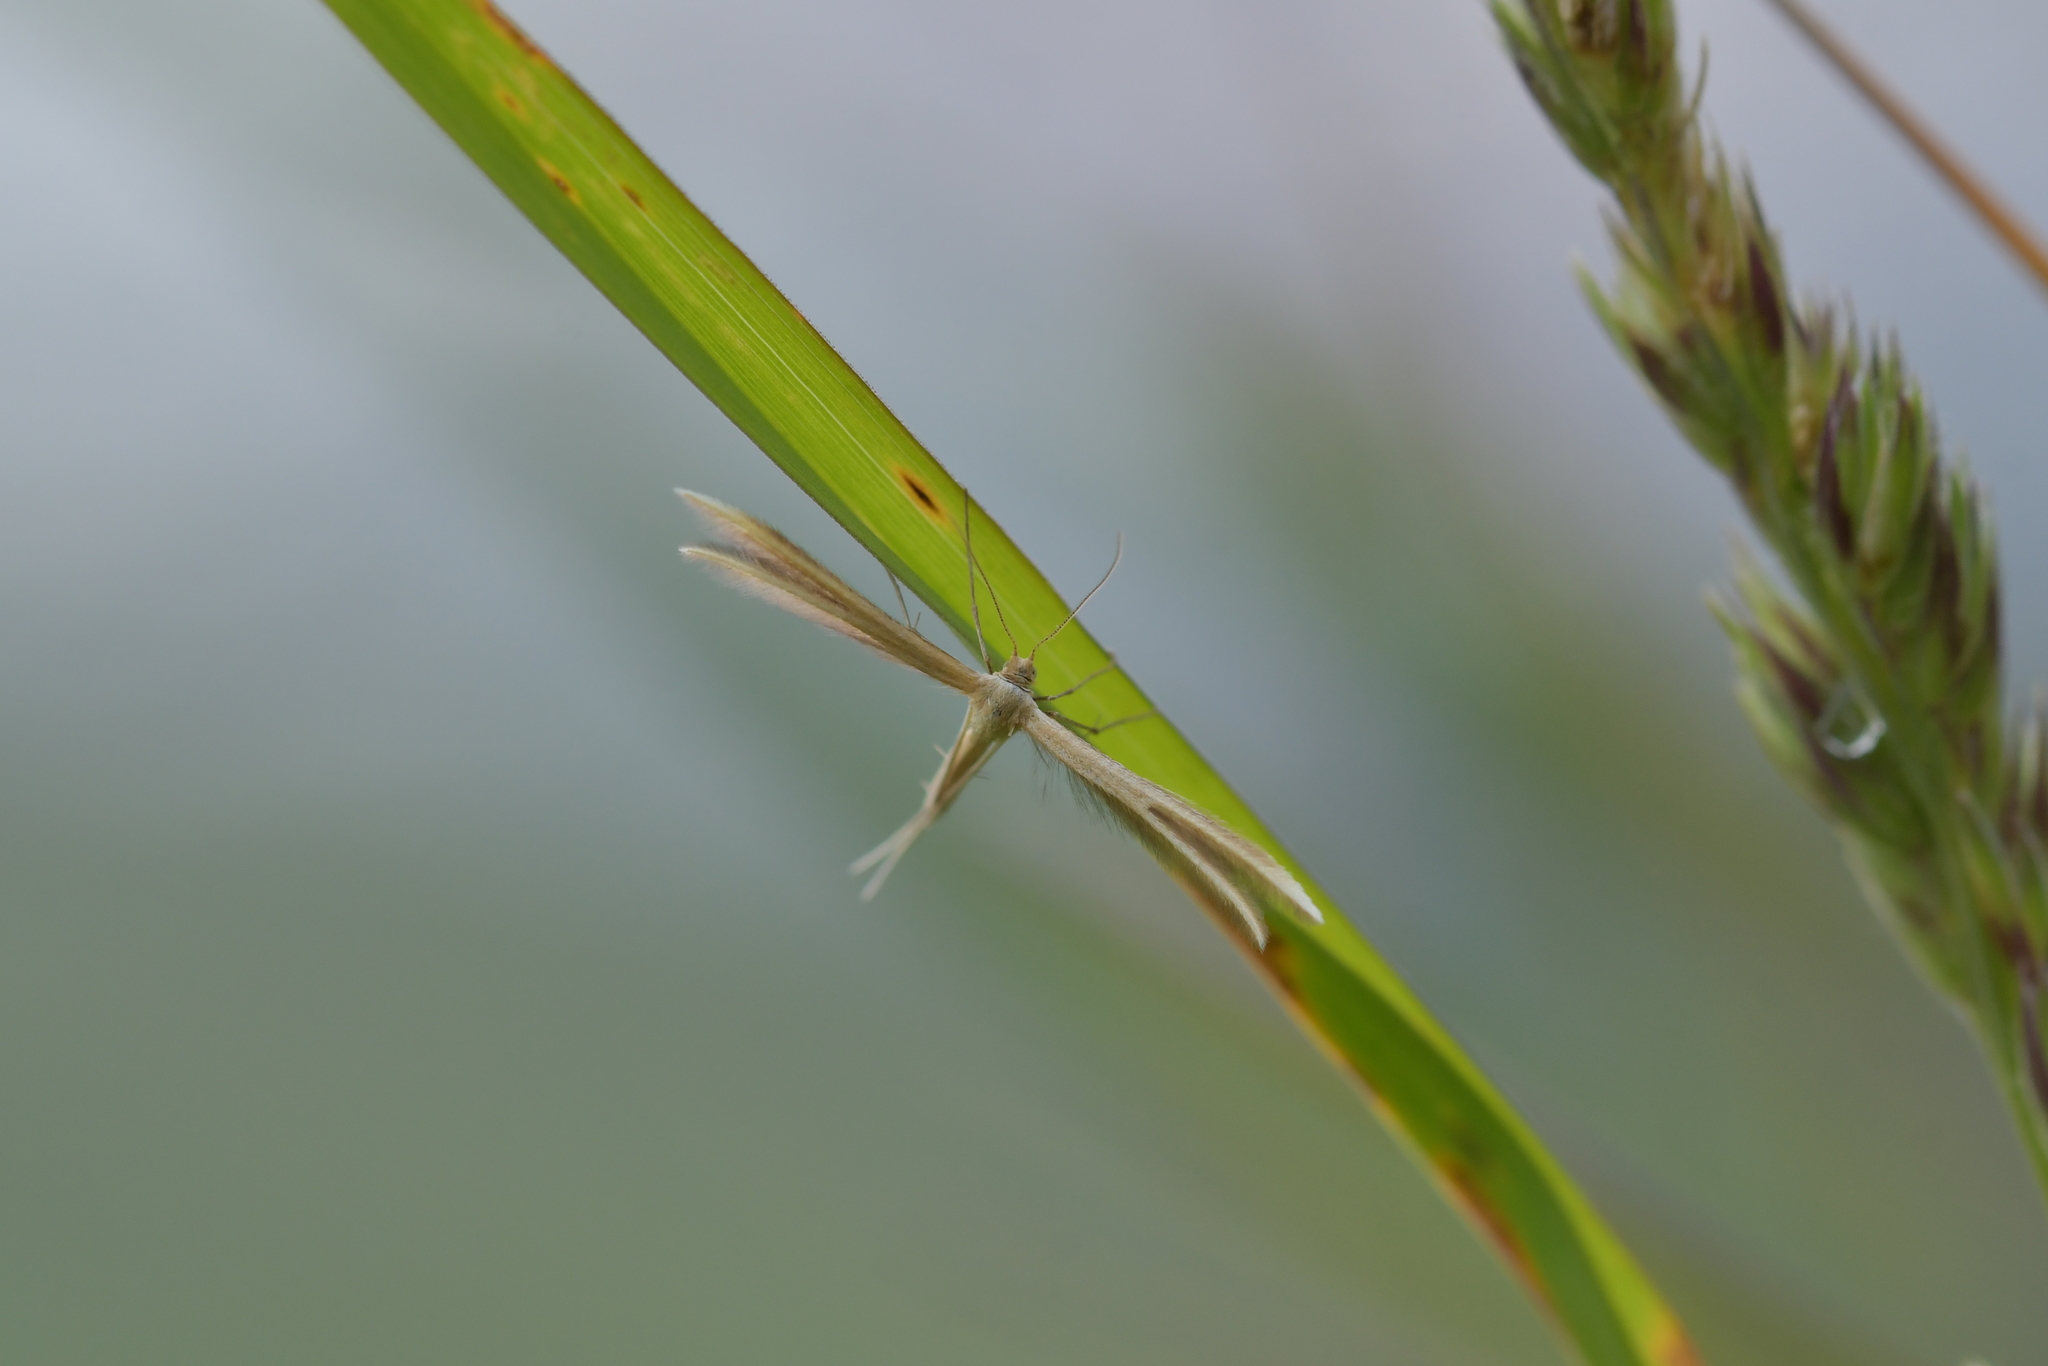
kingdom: Animalia
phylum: Arthropoda
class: Insecta
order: Lepidoptera
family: Pterophoridae
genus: Pterophorus
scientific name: Pterophorus innotatalis
